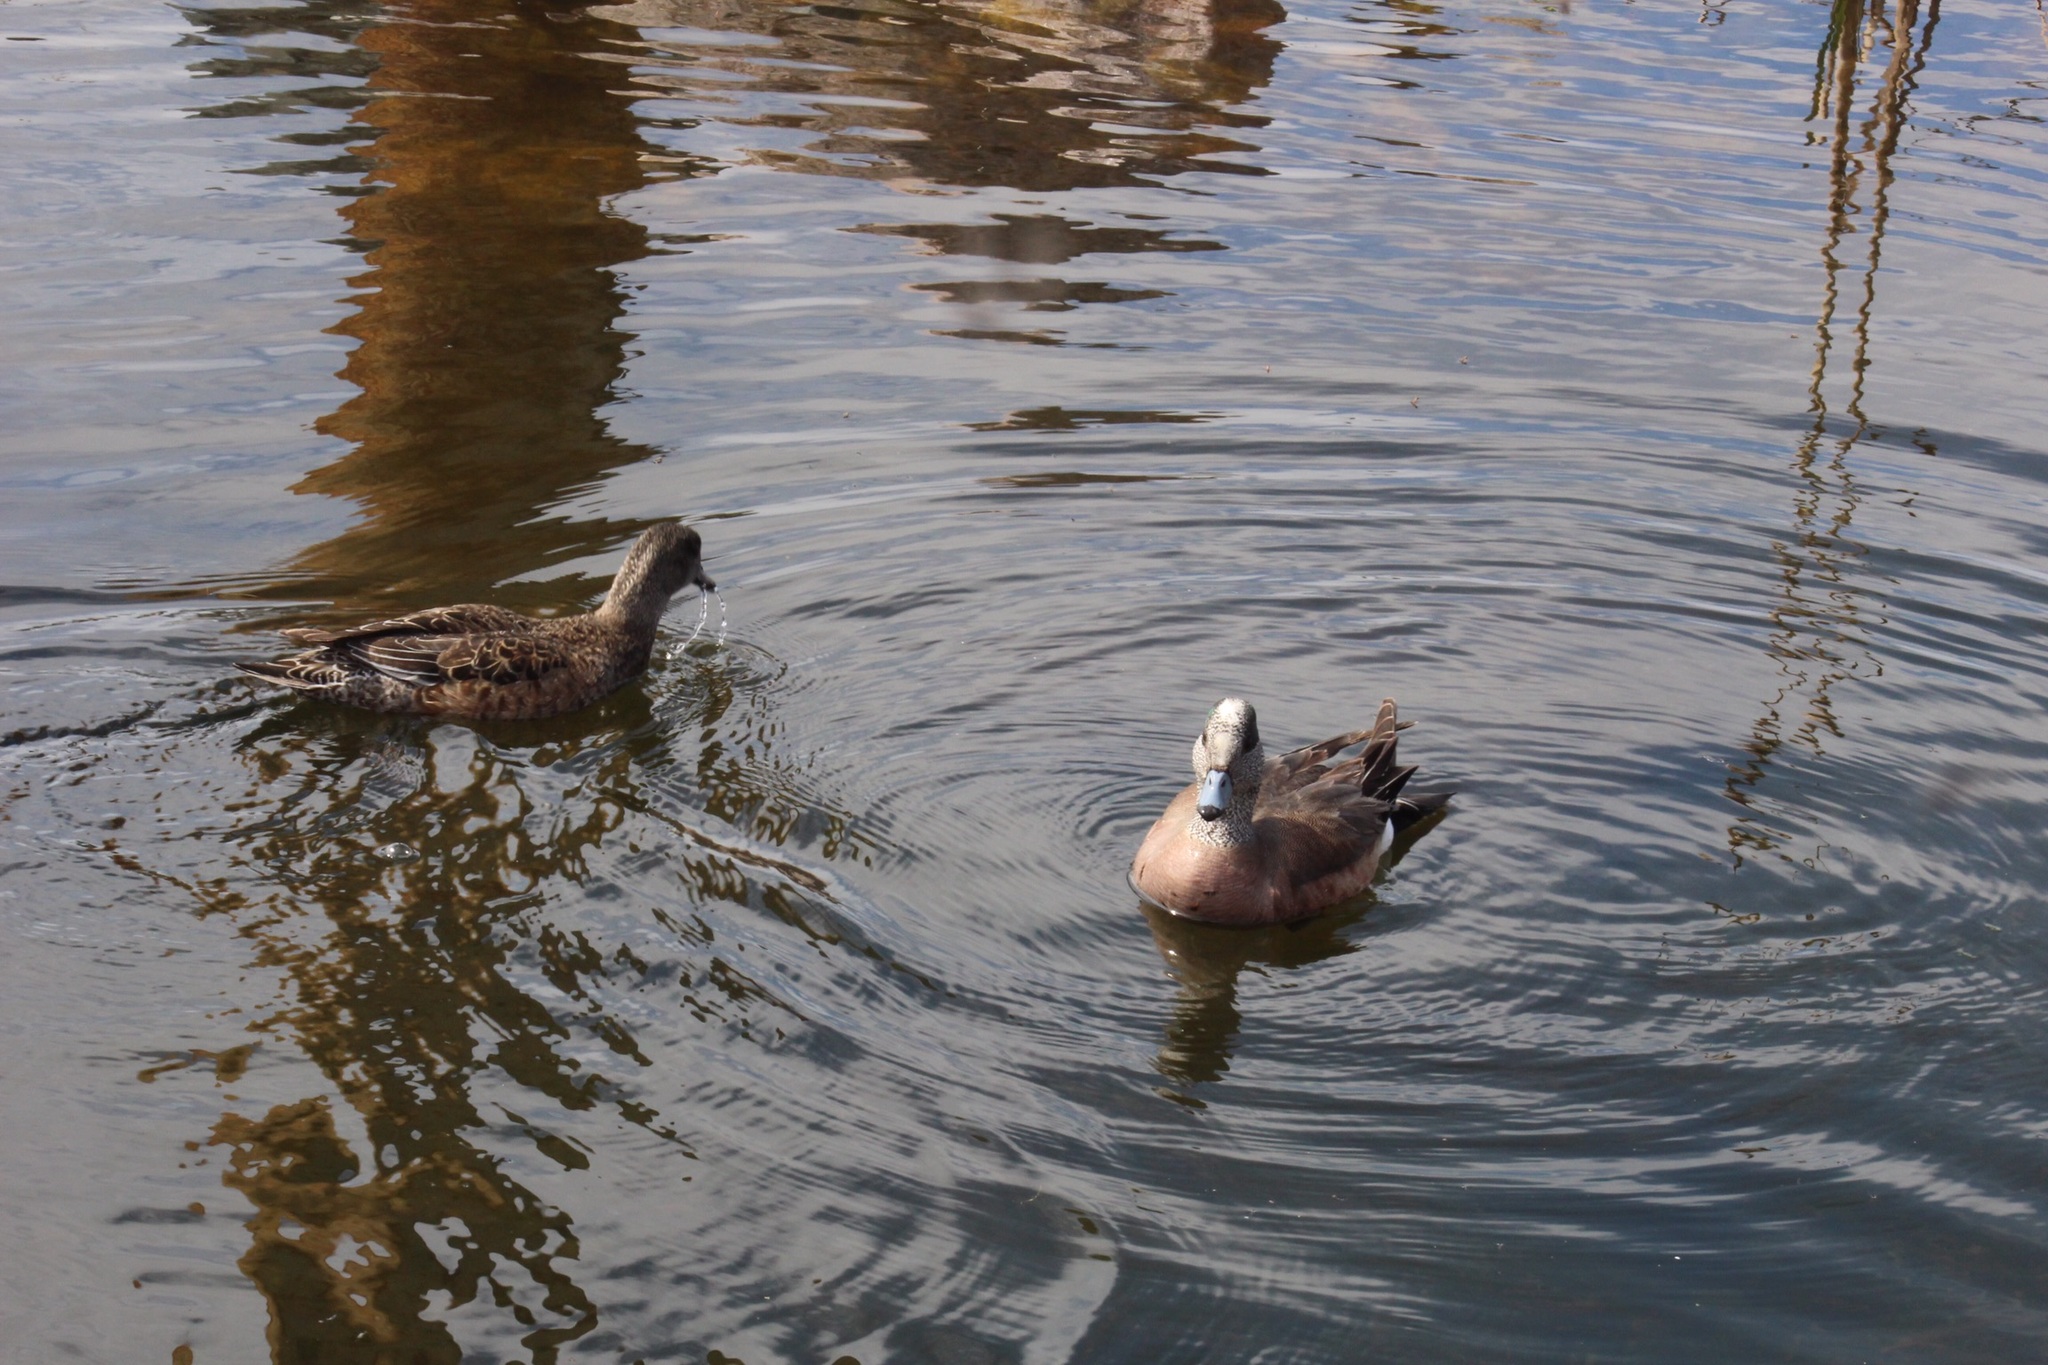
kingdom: Animalia
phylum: Chordata
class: Aves
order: Anseriformes
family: Anatidae
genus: Mareca
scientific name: Mareca americana
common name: American wigeon
